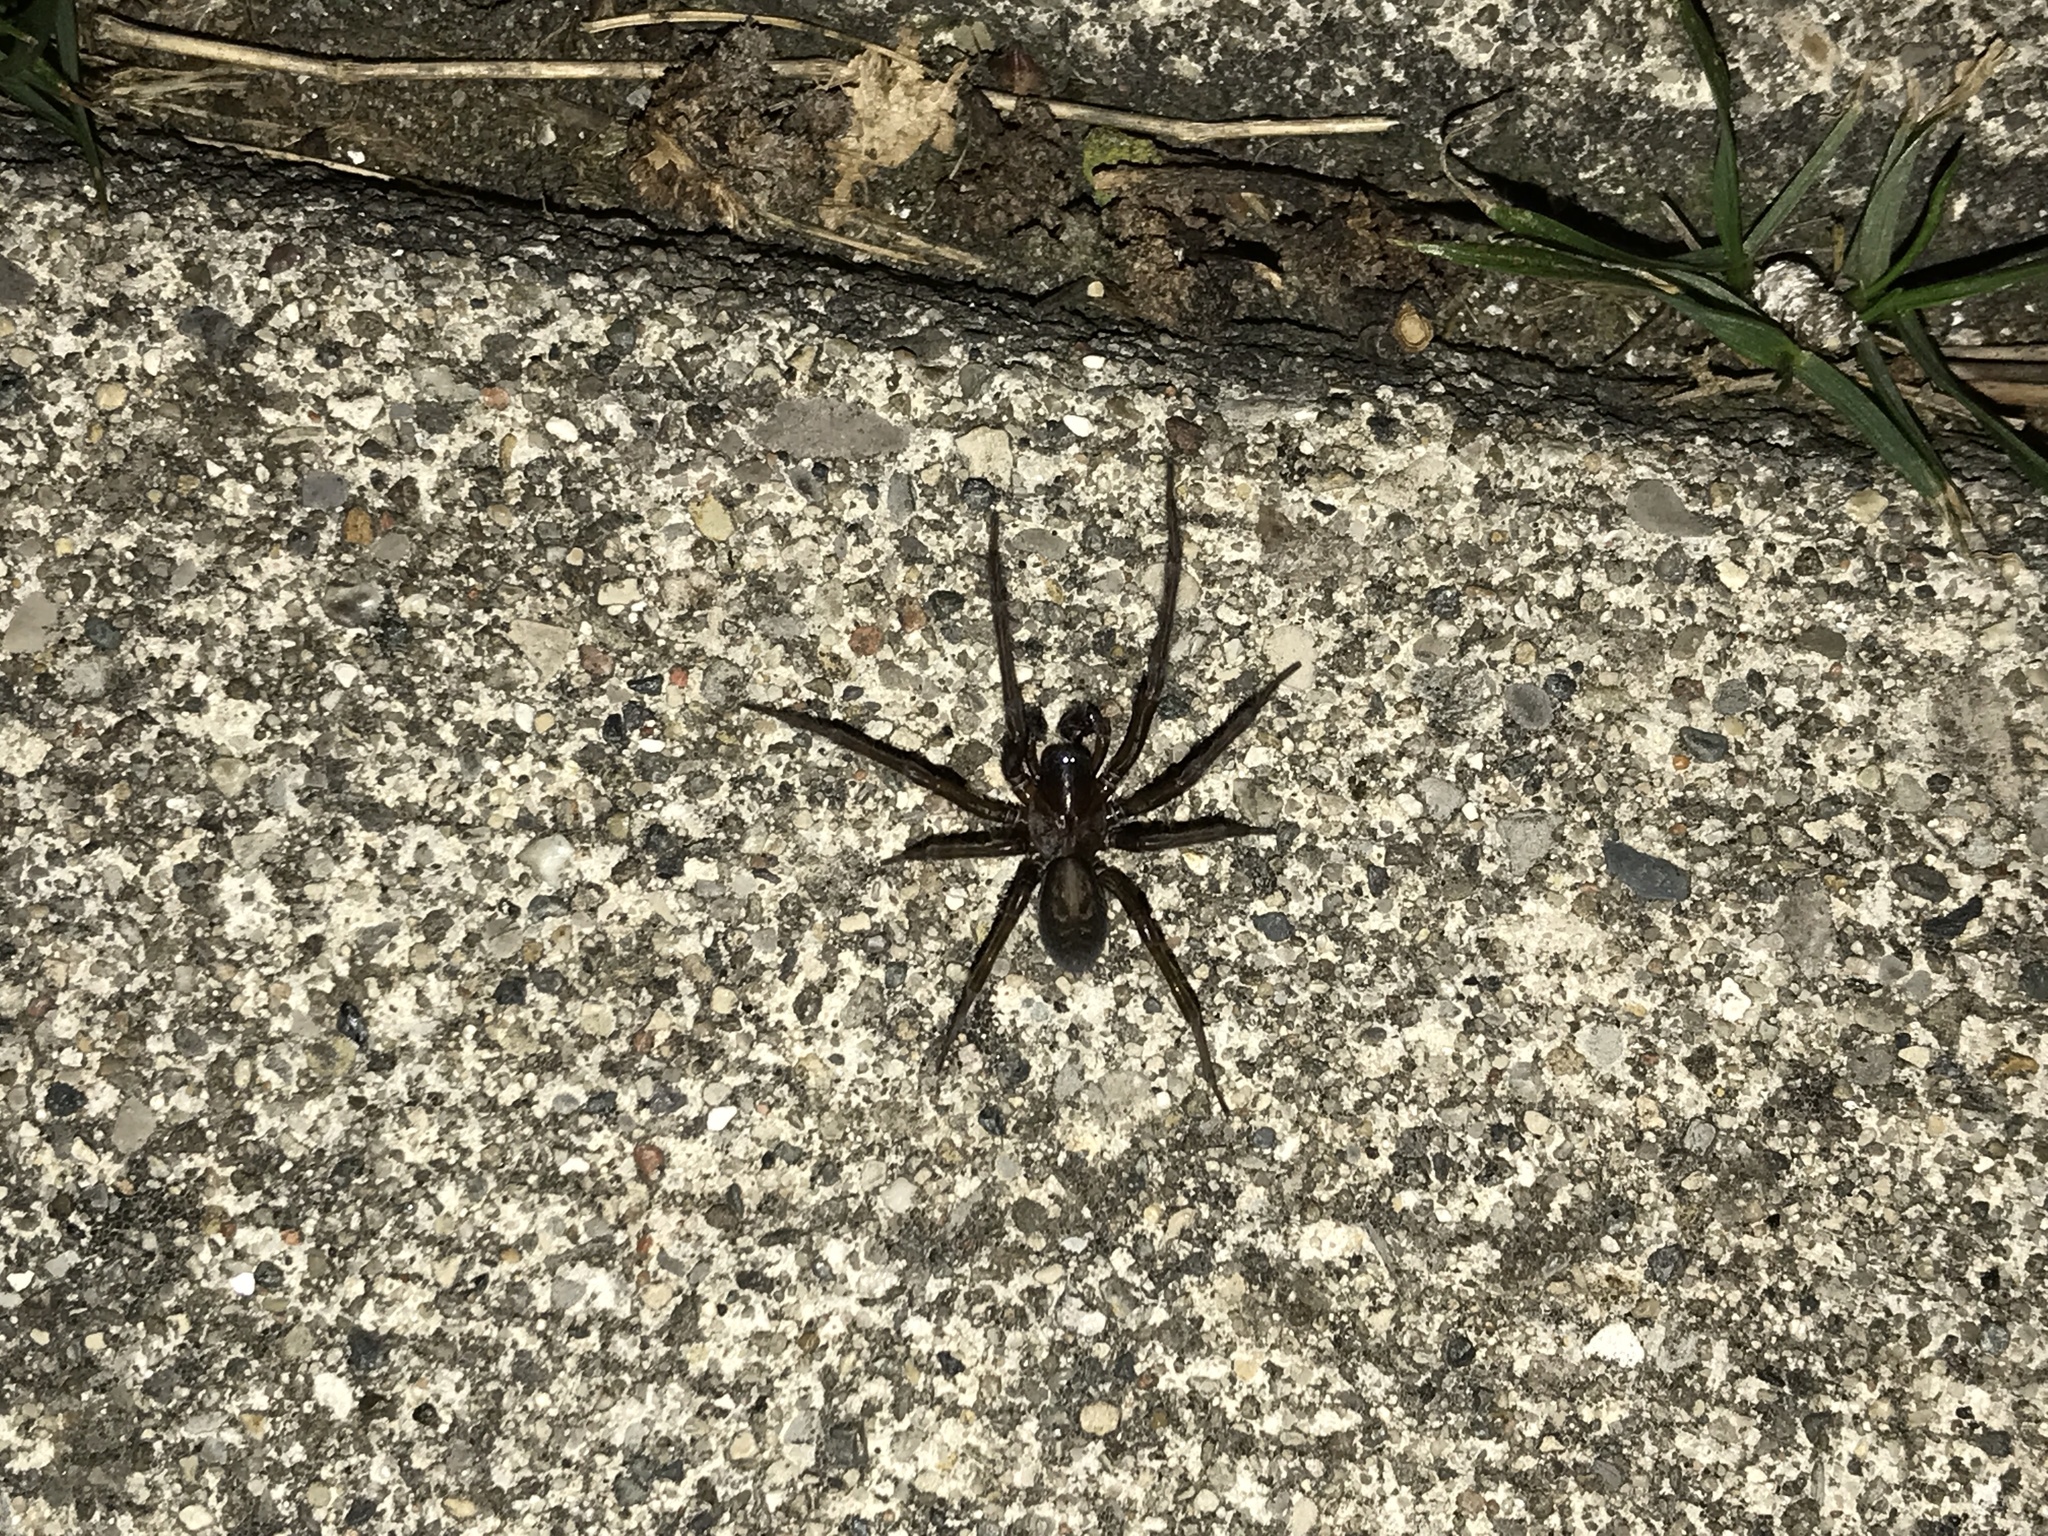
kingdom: Animalia
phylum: Arthropoda
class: Arachnida
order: Araneae
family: Amaurobiidae
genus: Amaurobius
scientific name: Amaurobius ferox
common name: Black laceweaver
